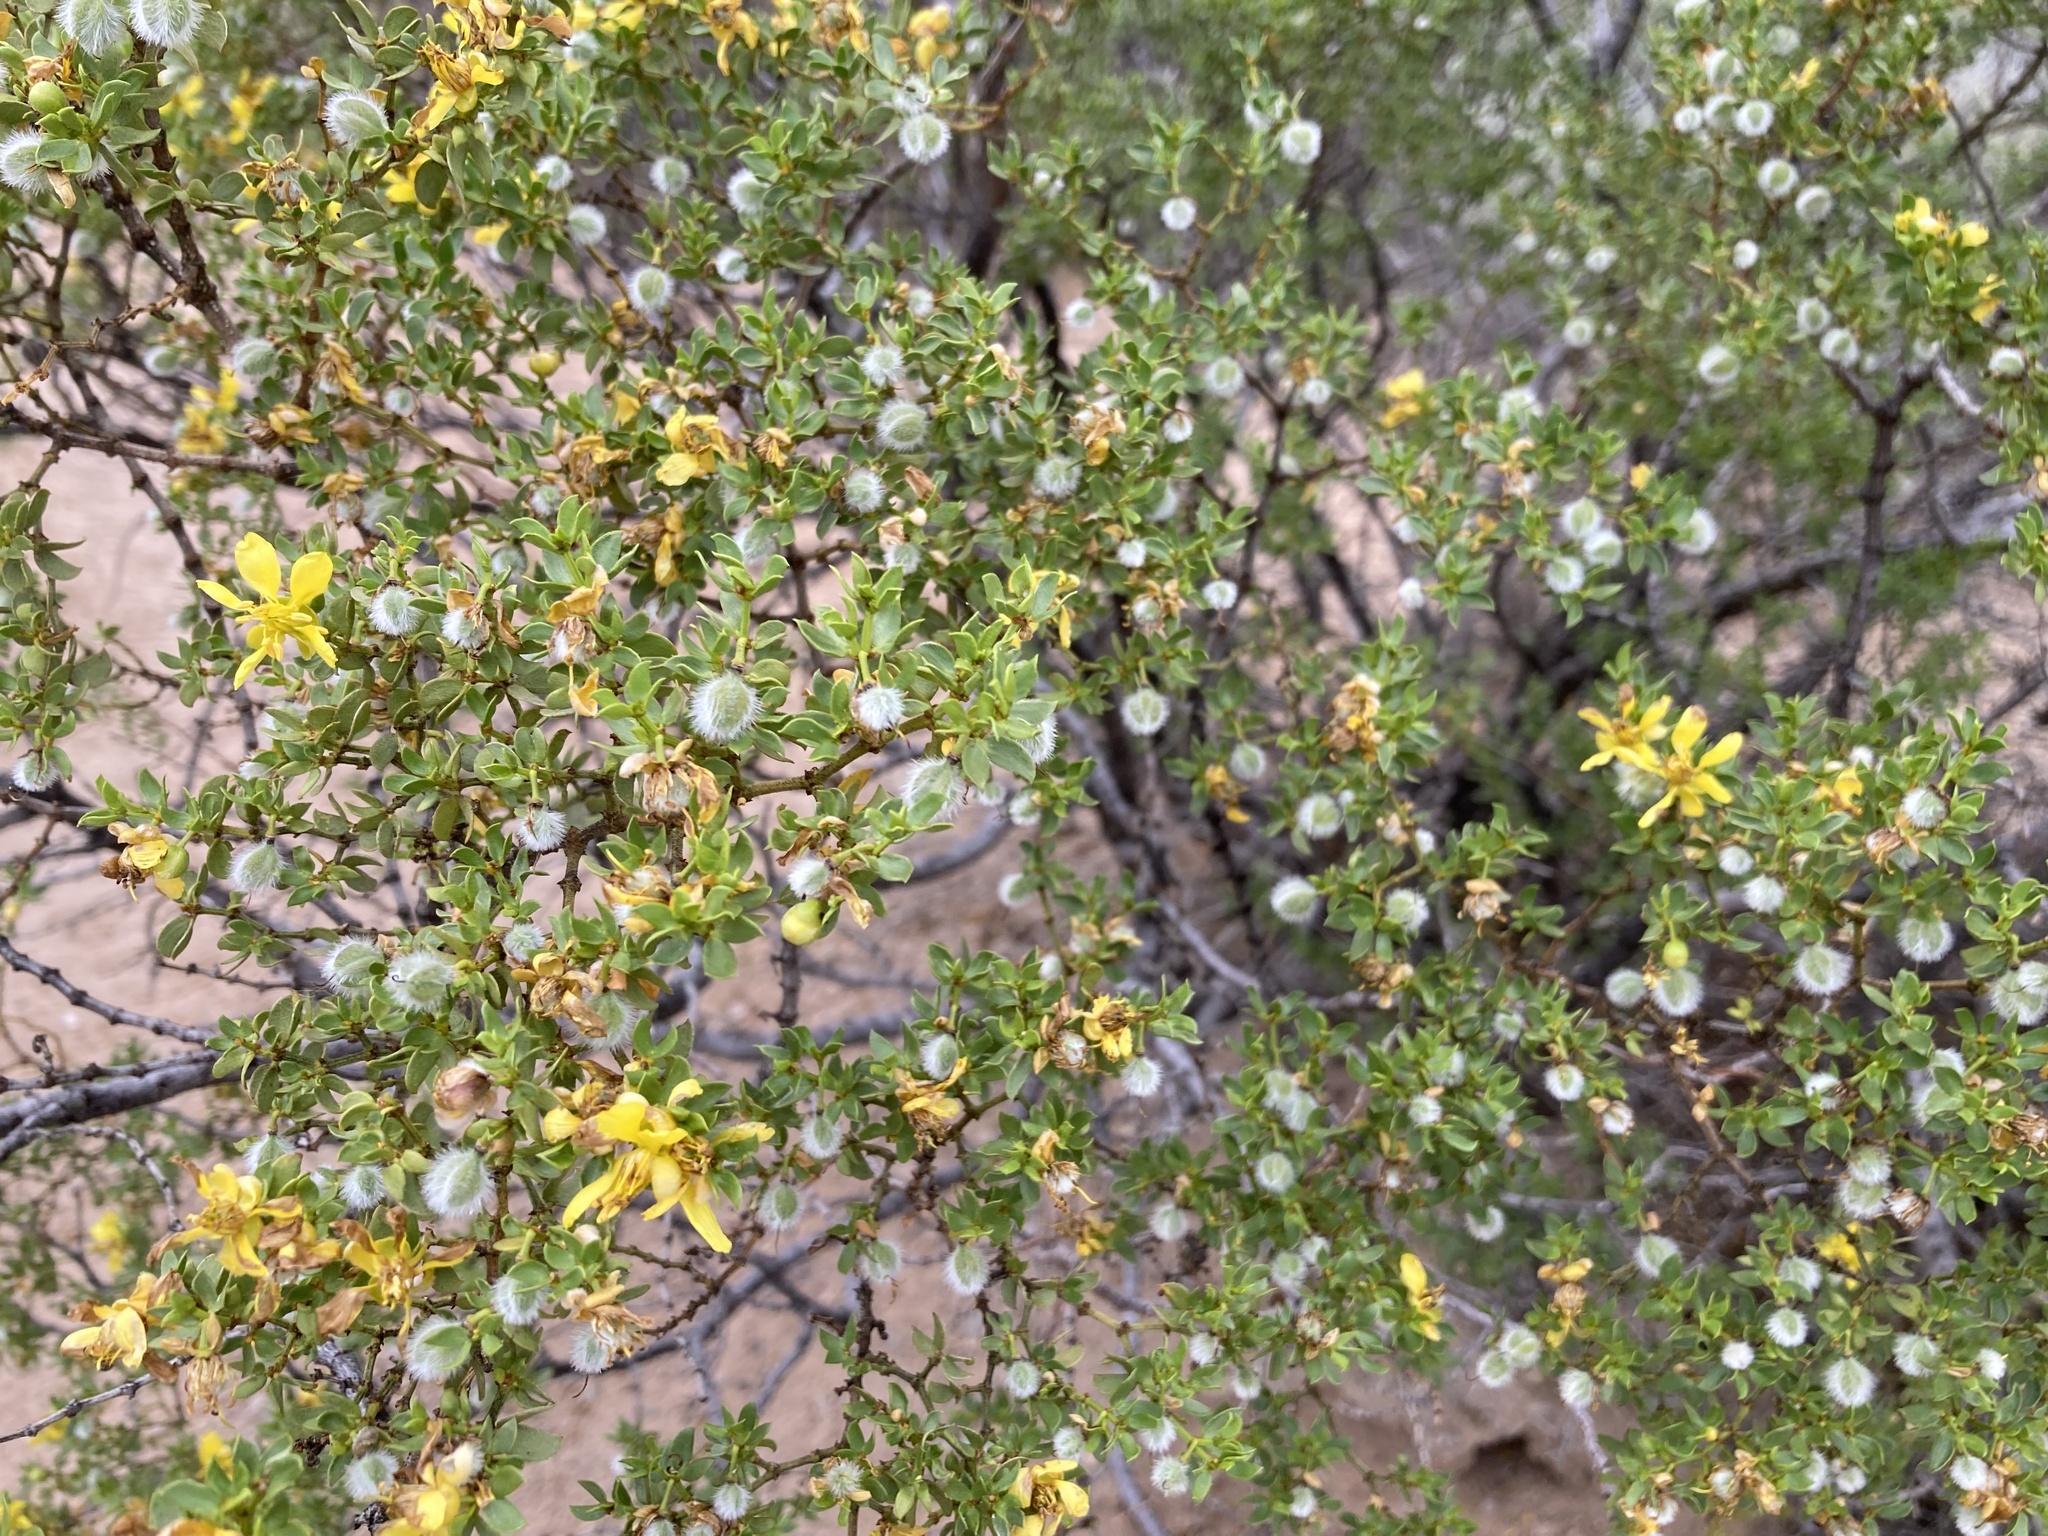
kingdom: Plantae
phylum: Tracheophyta
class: Magnoliopsida
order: Zygophyllales
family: Zygophyllaceae
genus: Larrea
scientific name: Larrea tridentata
